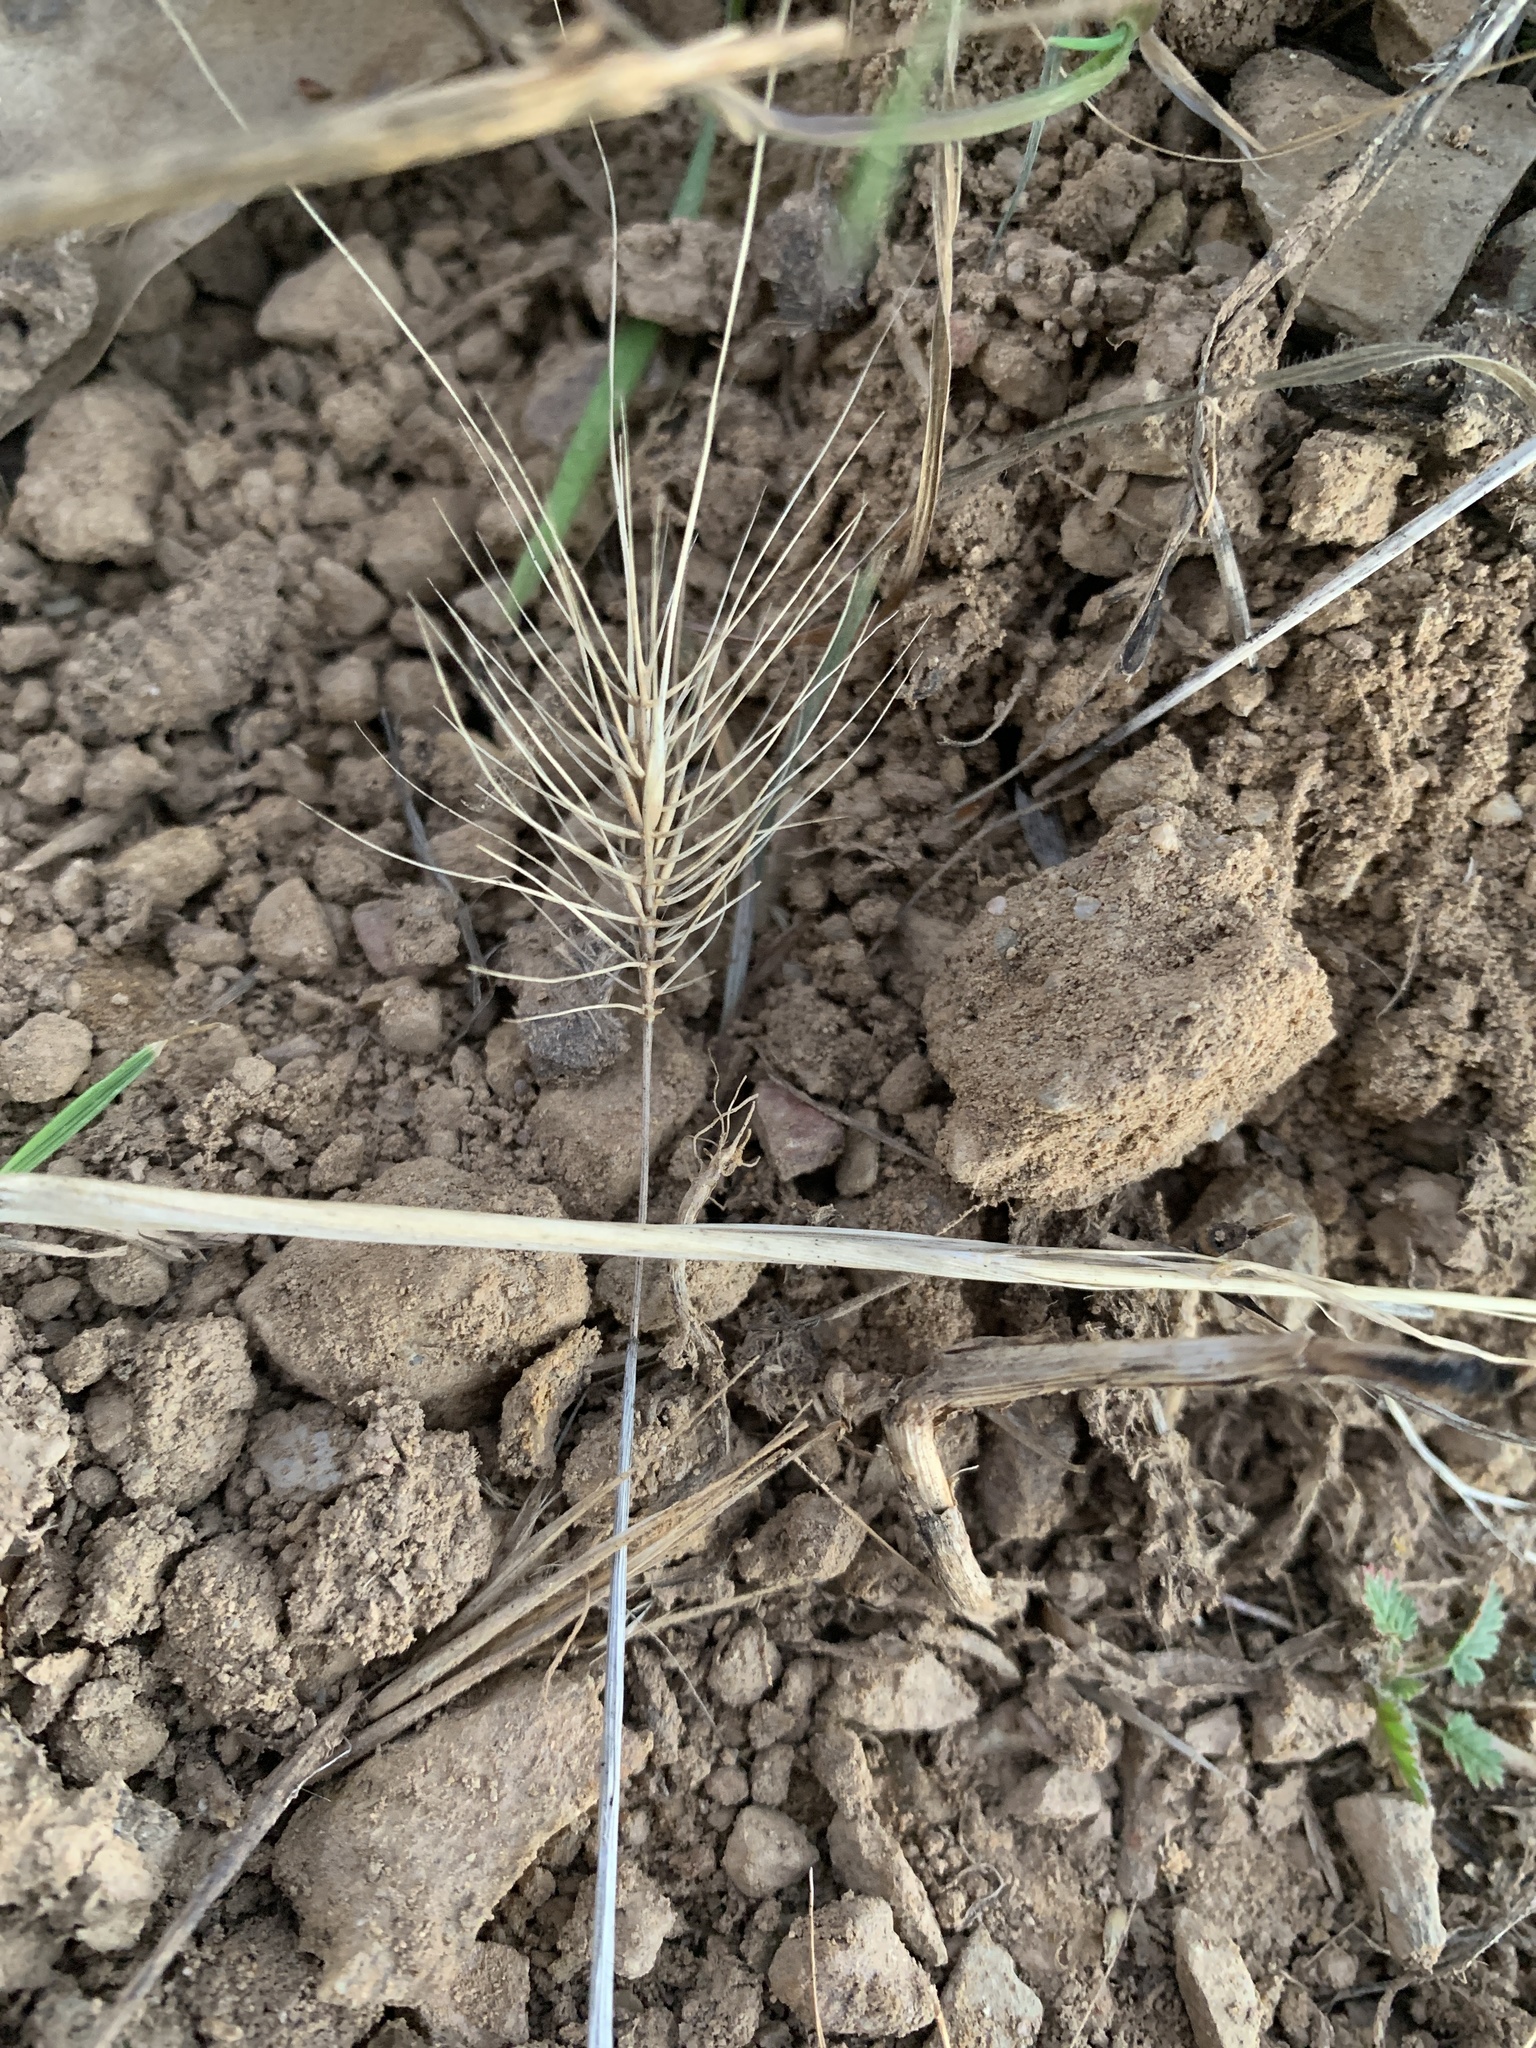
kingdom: Plantae
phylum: Tracheophyta
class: Liliopsida
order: Poales
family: Poaceae
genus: Taeniatherum
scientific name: Taeniatherum caput-medusae
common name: Medusahead
